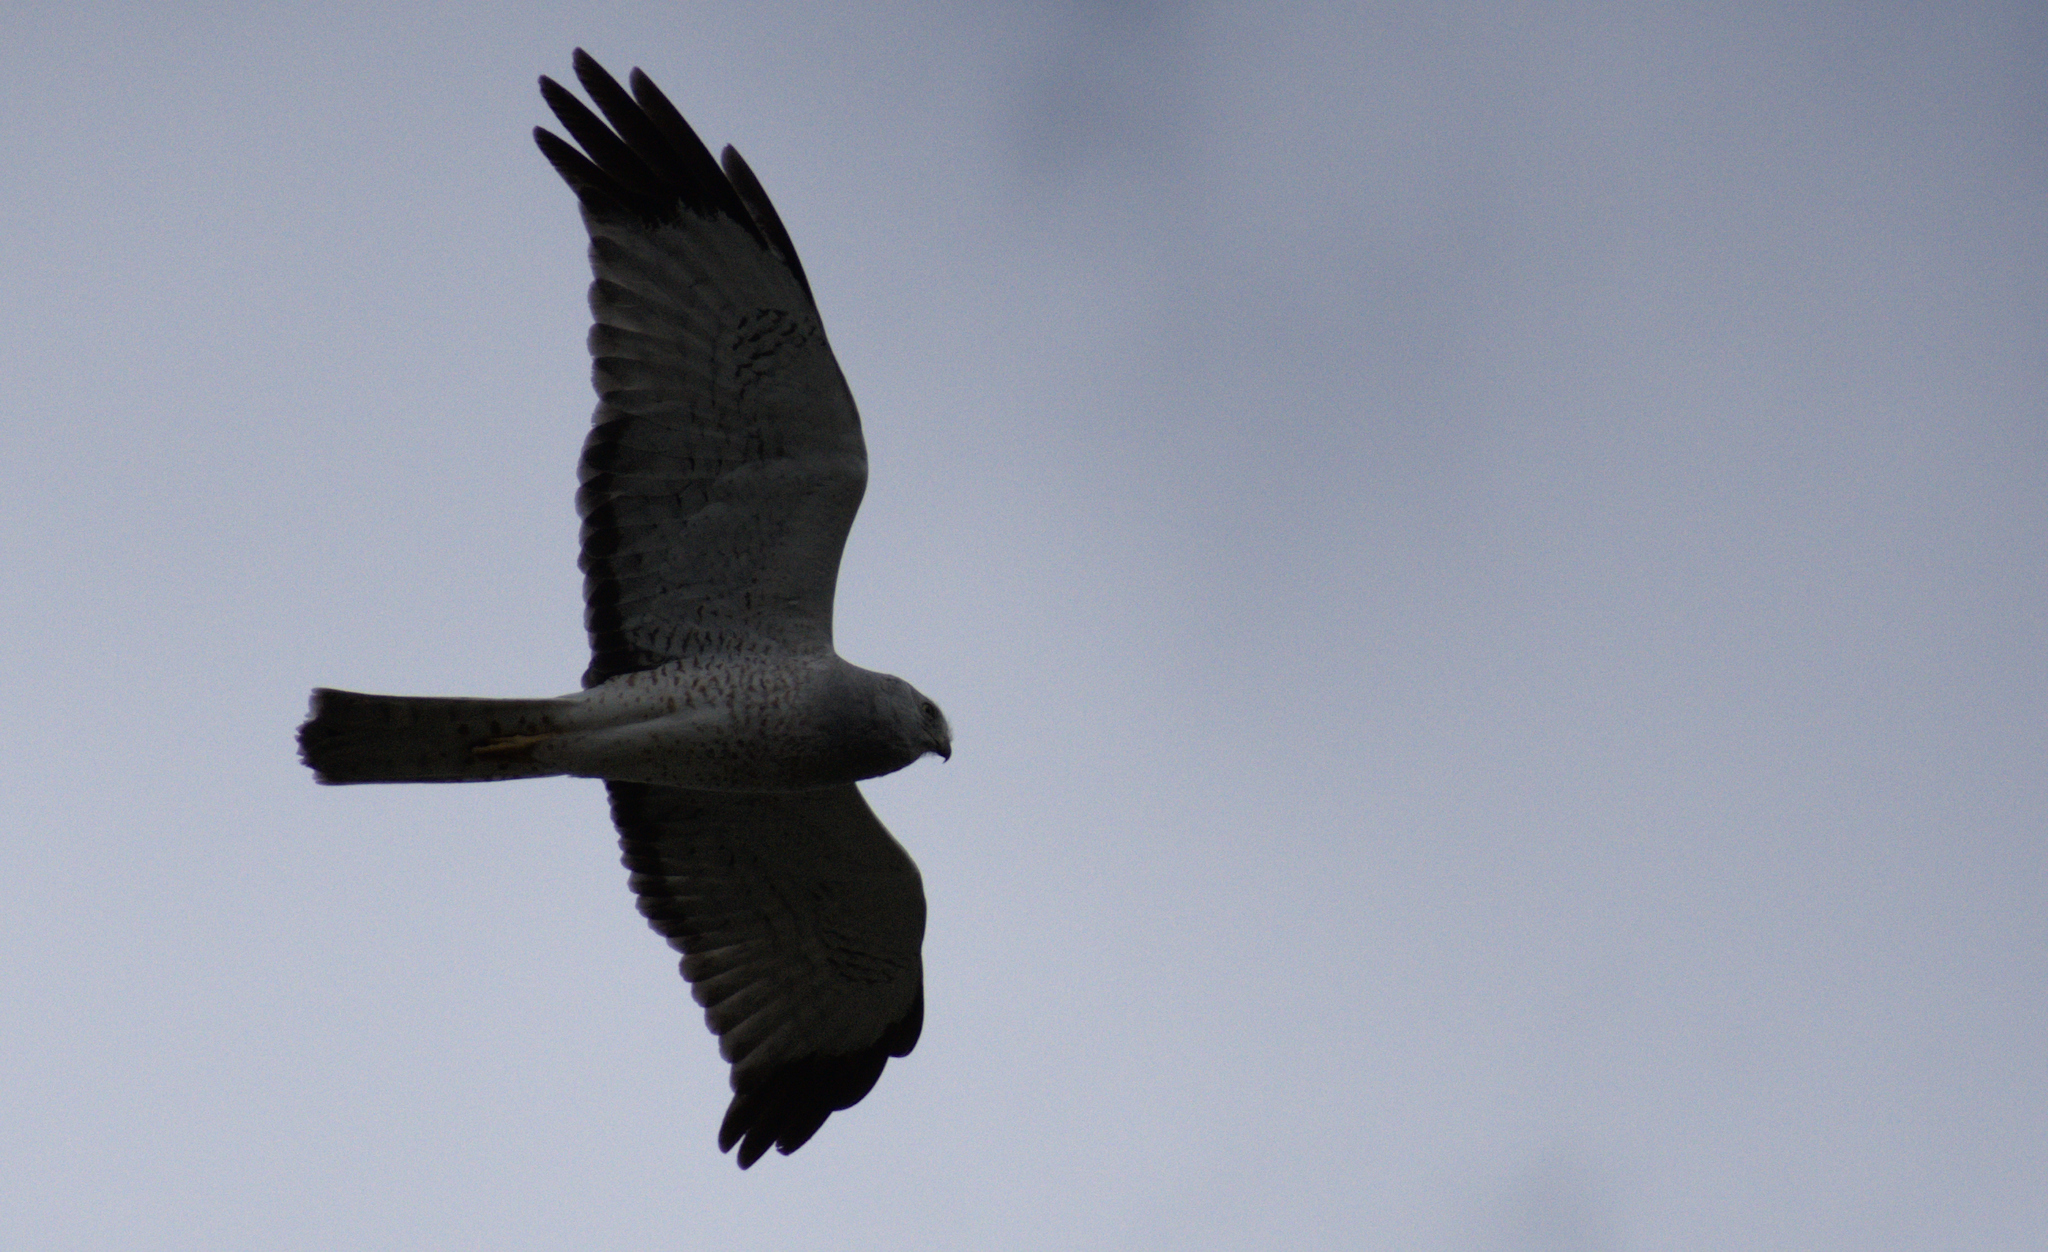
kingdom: Animalia
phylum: Chordata
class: Aves
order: Accipitriformes
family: Accipitridae
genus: Circus
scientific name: Circus cyaneus
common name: Hen harrier
